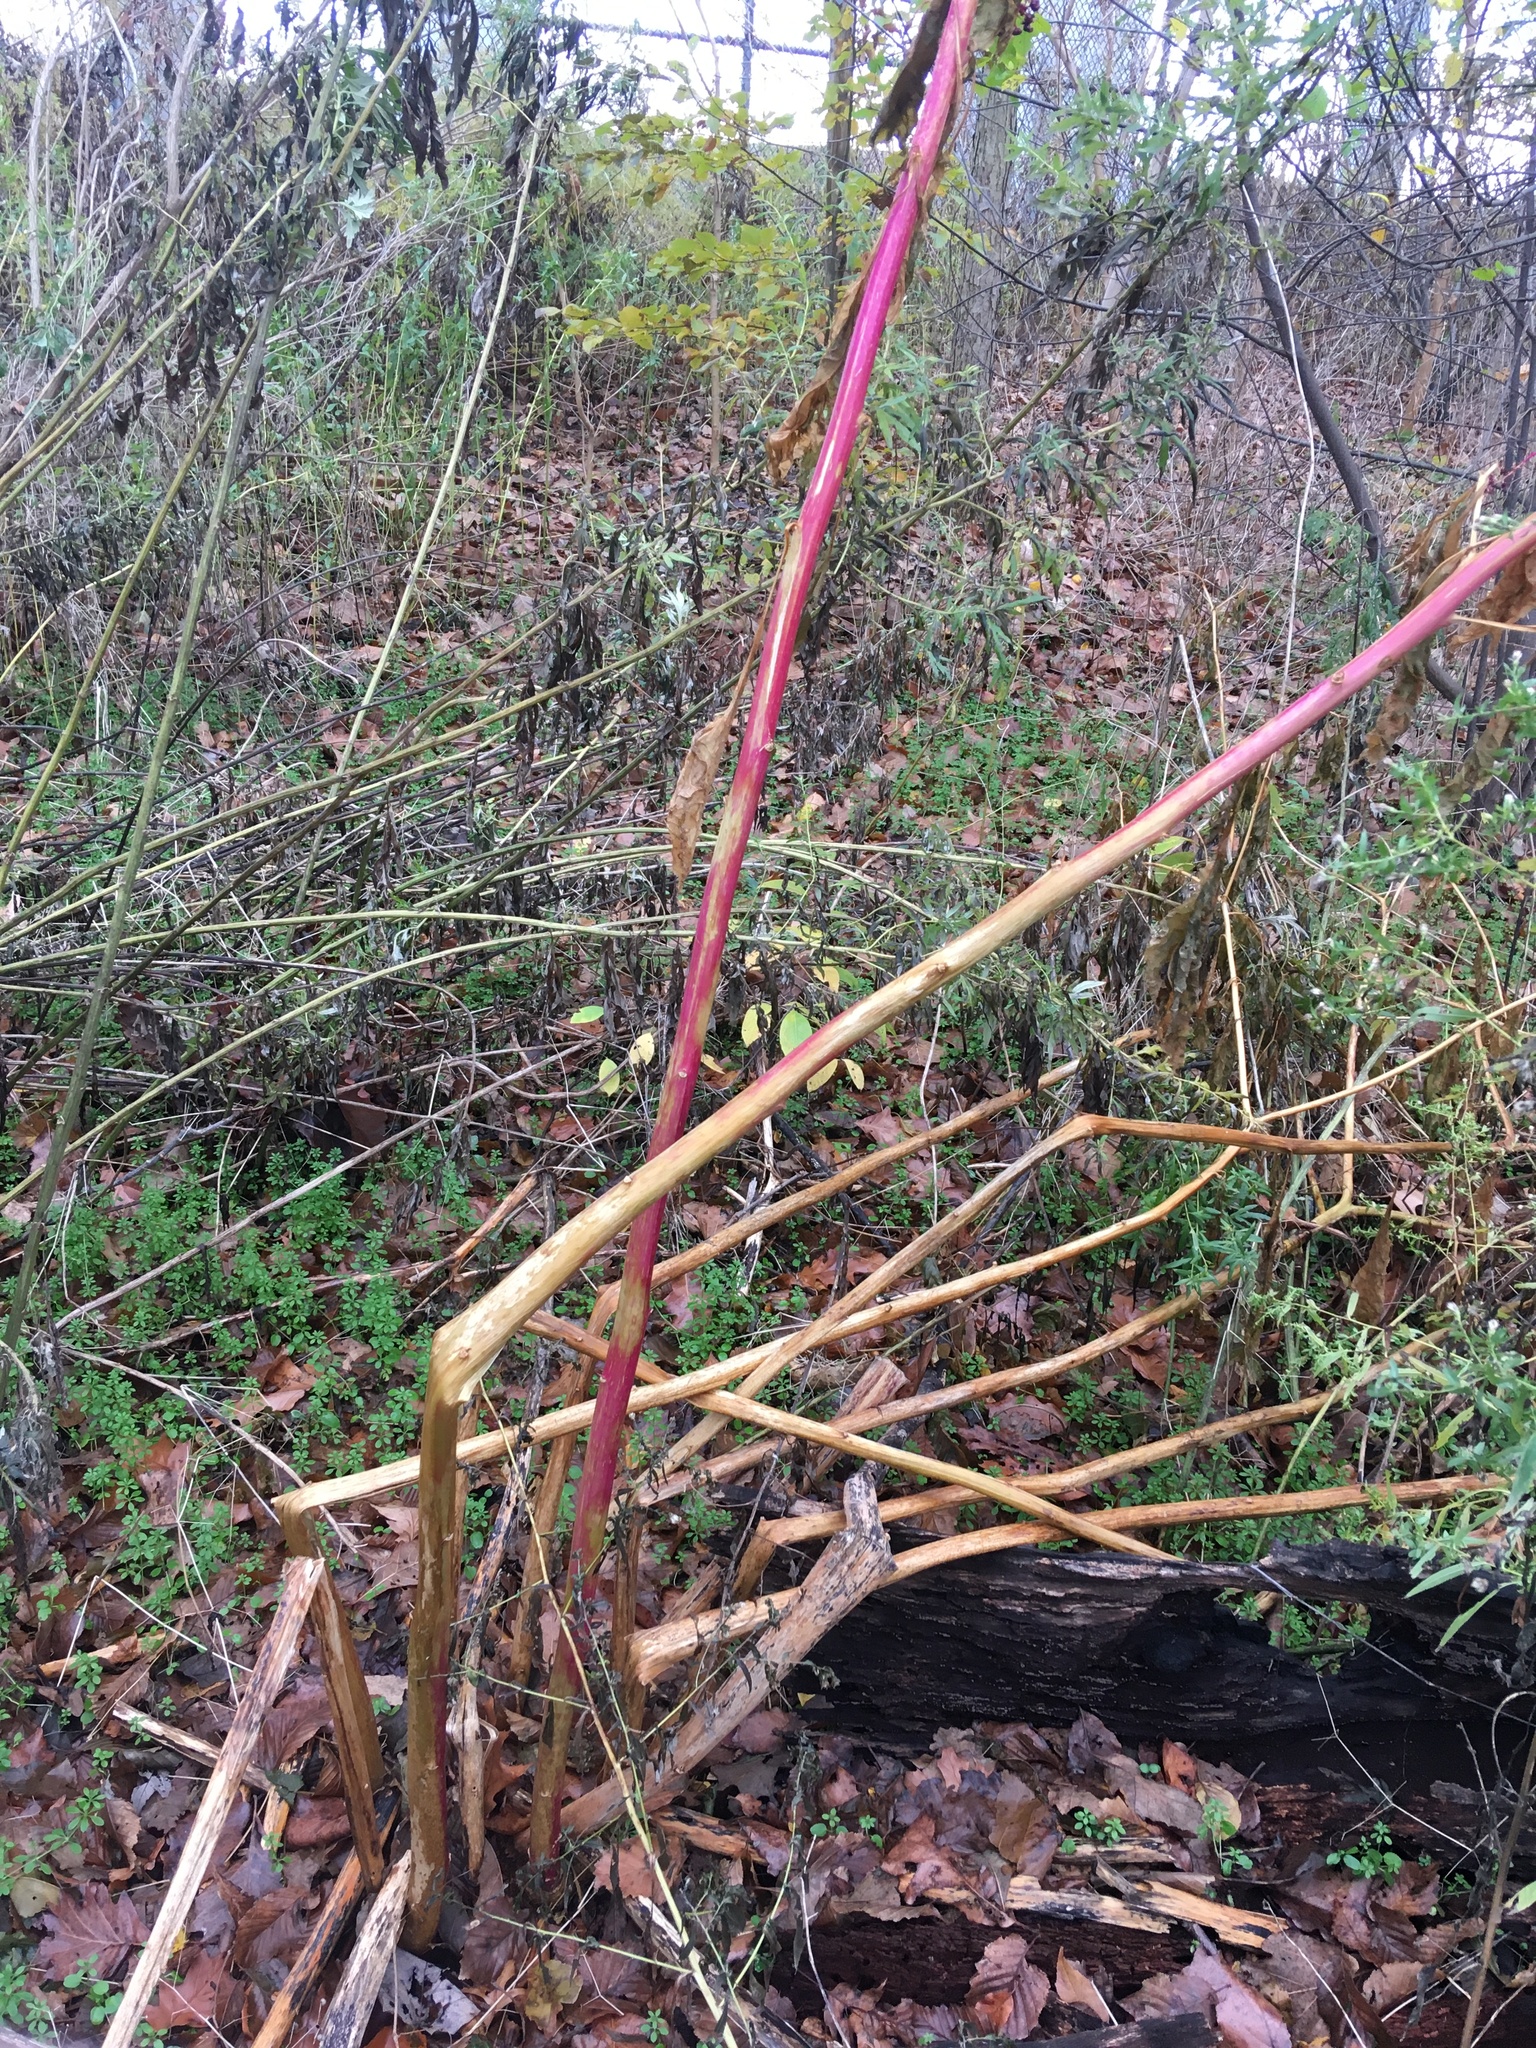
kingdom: Plantae
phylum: Tracheophyta
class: Magnoliopsida
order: Caryophyllales
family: Phytolaccaceae
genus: Phytolacca
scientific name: Phytolacca americana
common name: American pokeweed
